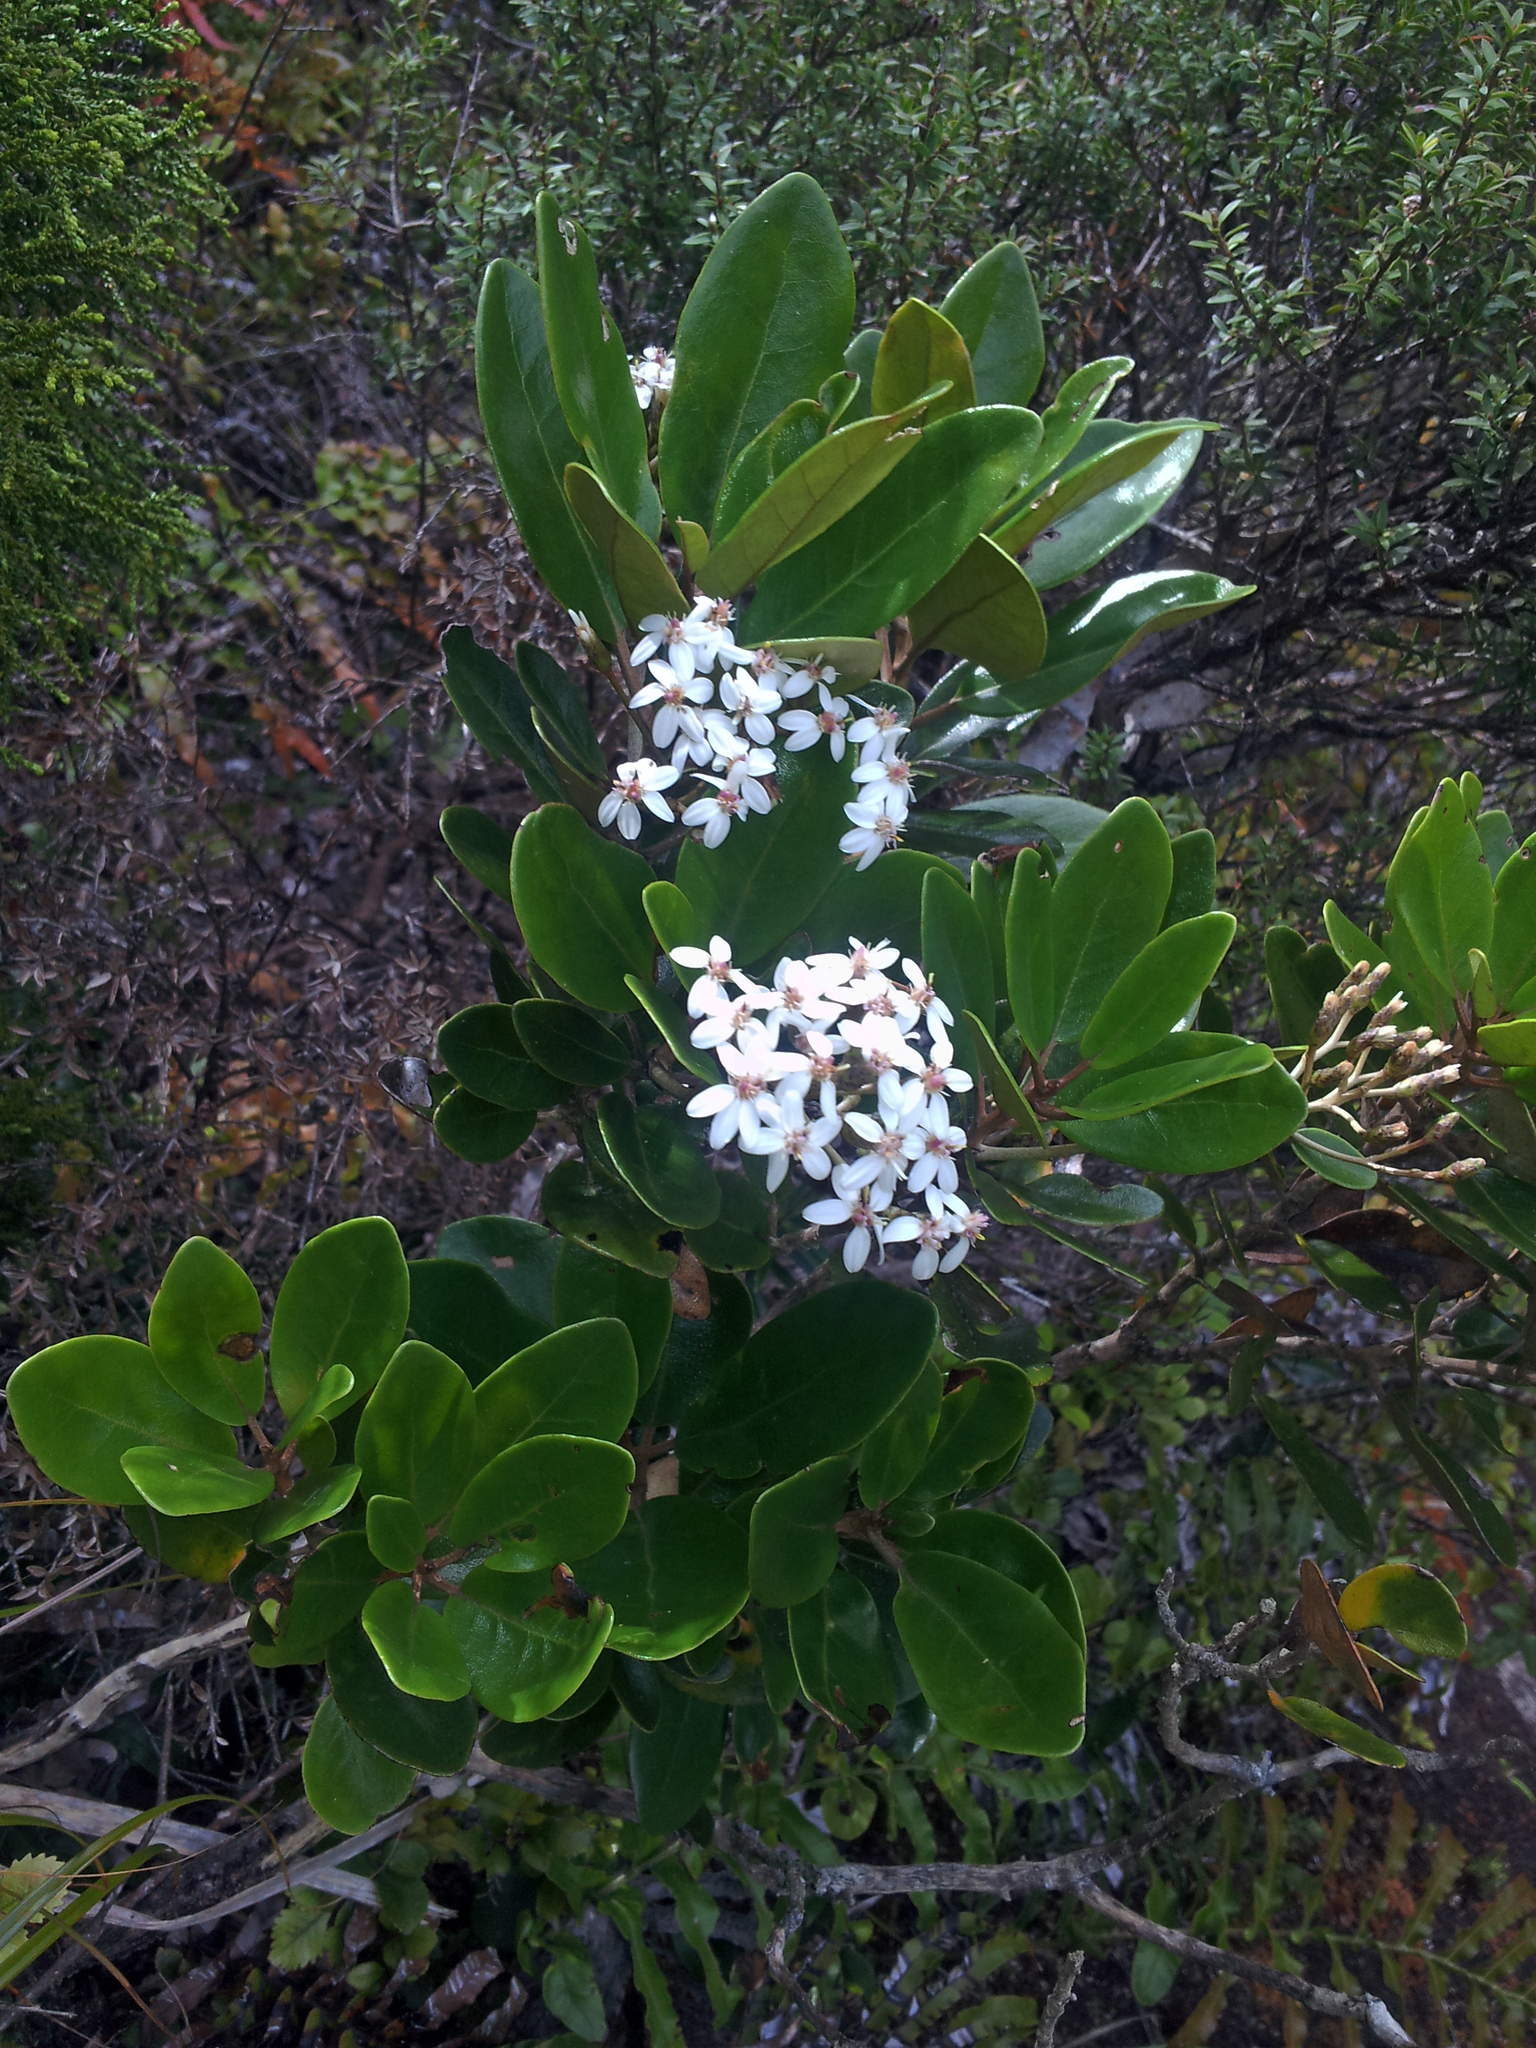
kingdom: Plantae
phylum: Tracheophyta
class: Magnoliopsida
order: Asterales
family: Asteraceae
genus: Olearia
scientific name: Olearia townsonii
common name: Coromandel tree daisy
